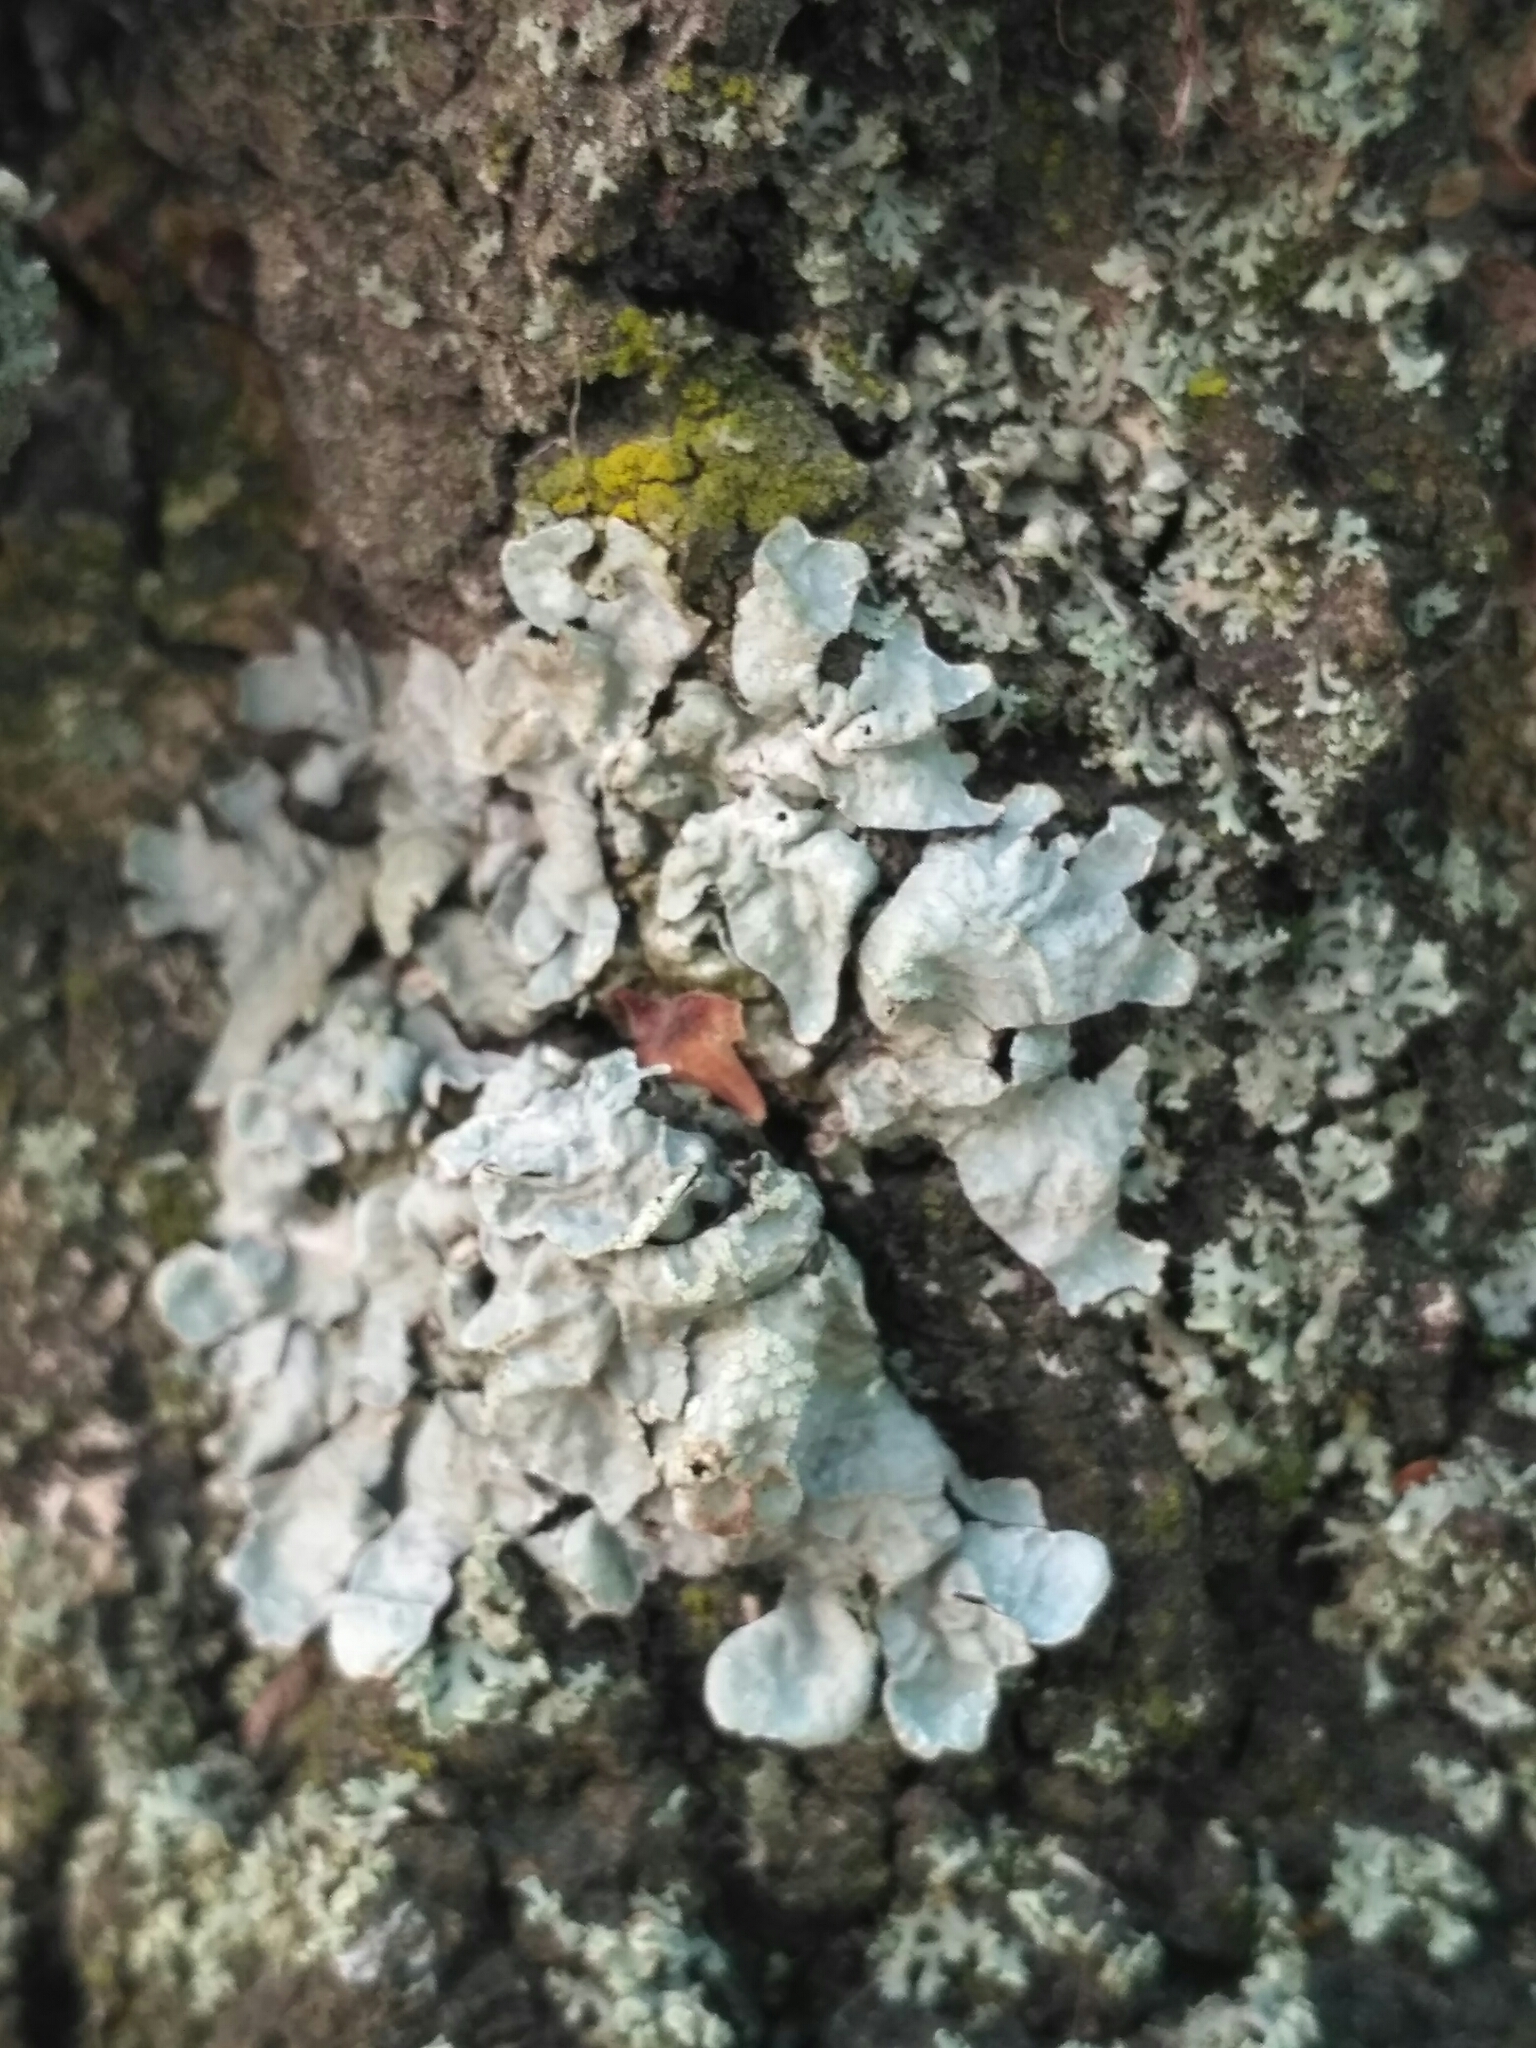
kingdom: Fungi
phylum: Ascomycota
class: Lecanoromycetes
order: Lecanorales
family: Parmeliaceae
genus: Parmelia
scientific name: Parmelia sulcata
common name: Netted shield lichen
